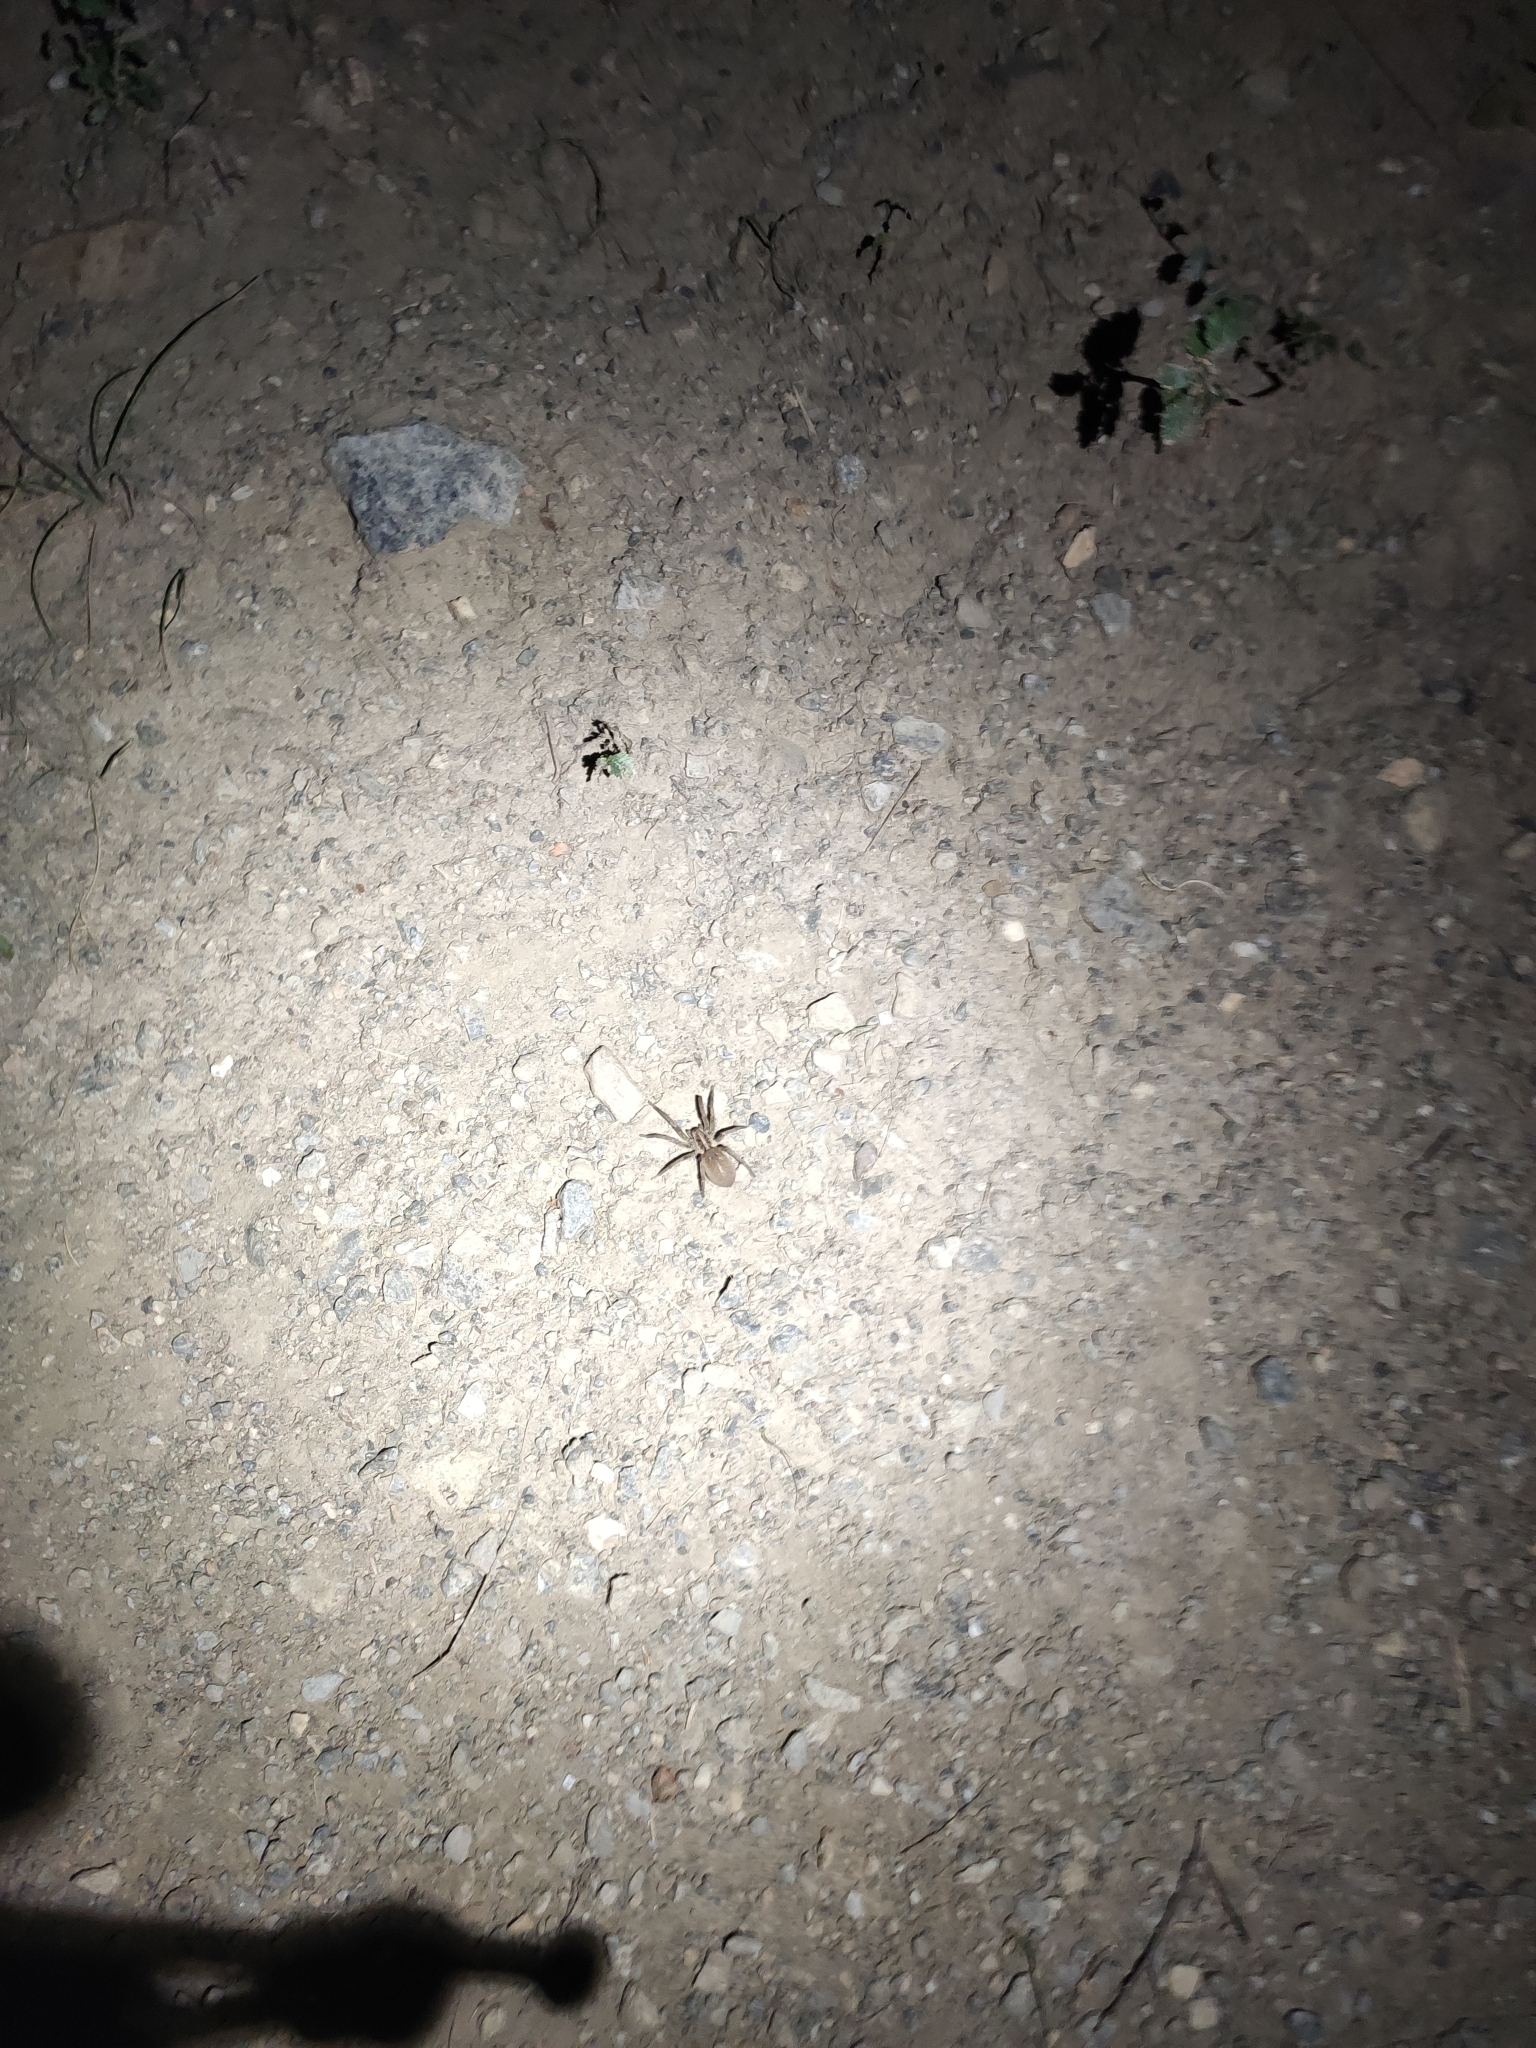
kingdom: Animalia
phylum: Arthropoda
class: Arachnida
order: Araneae
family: Lycosidae
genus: Hogna
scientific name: Hogna radiata
